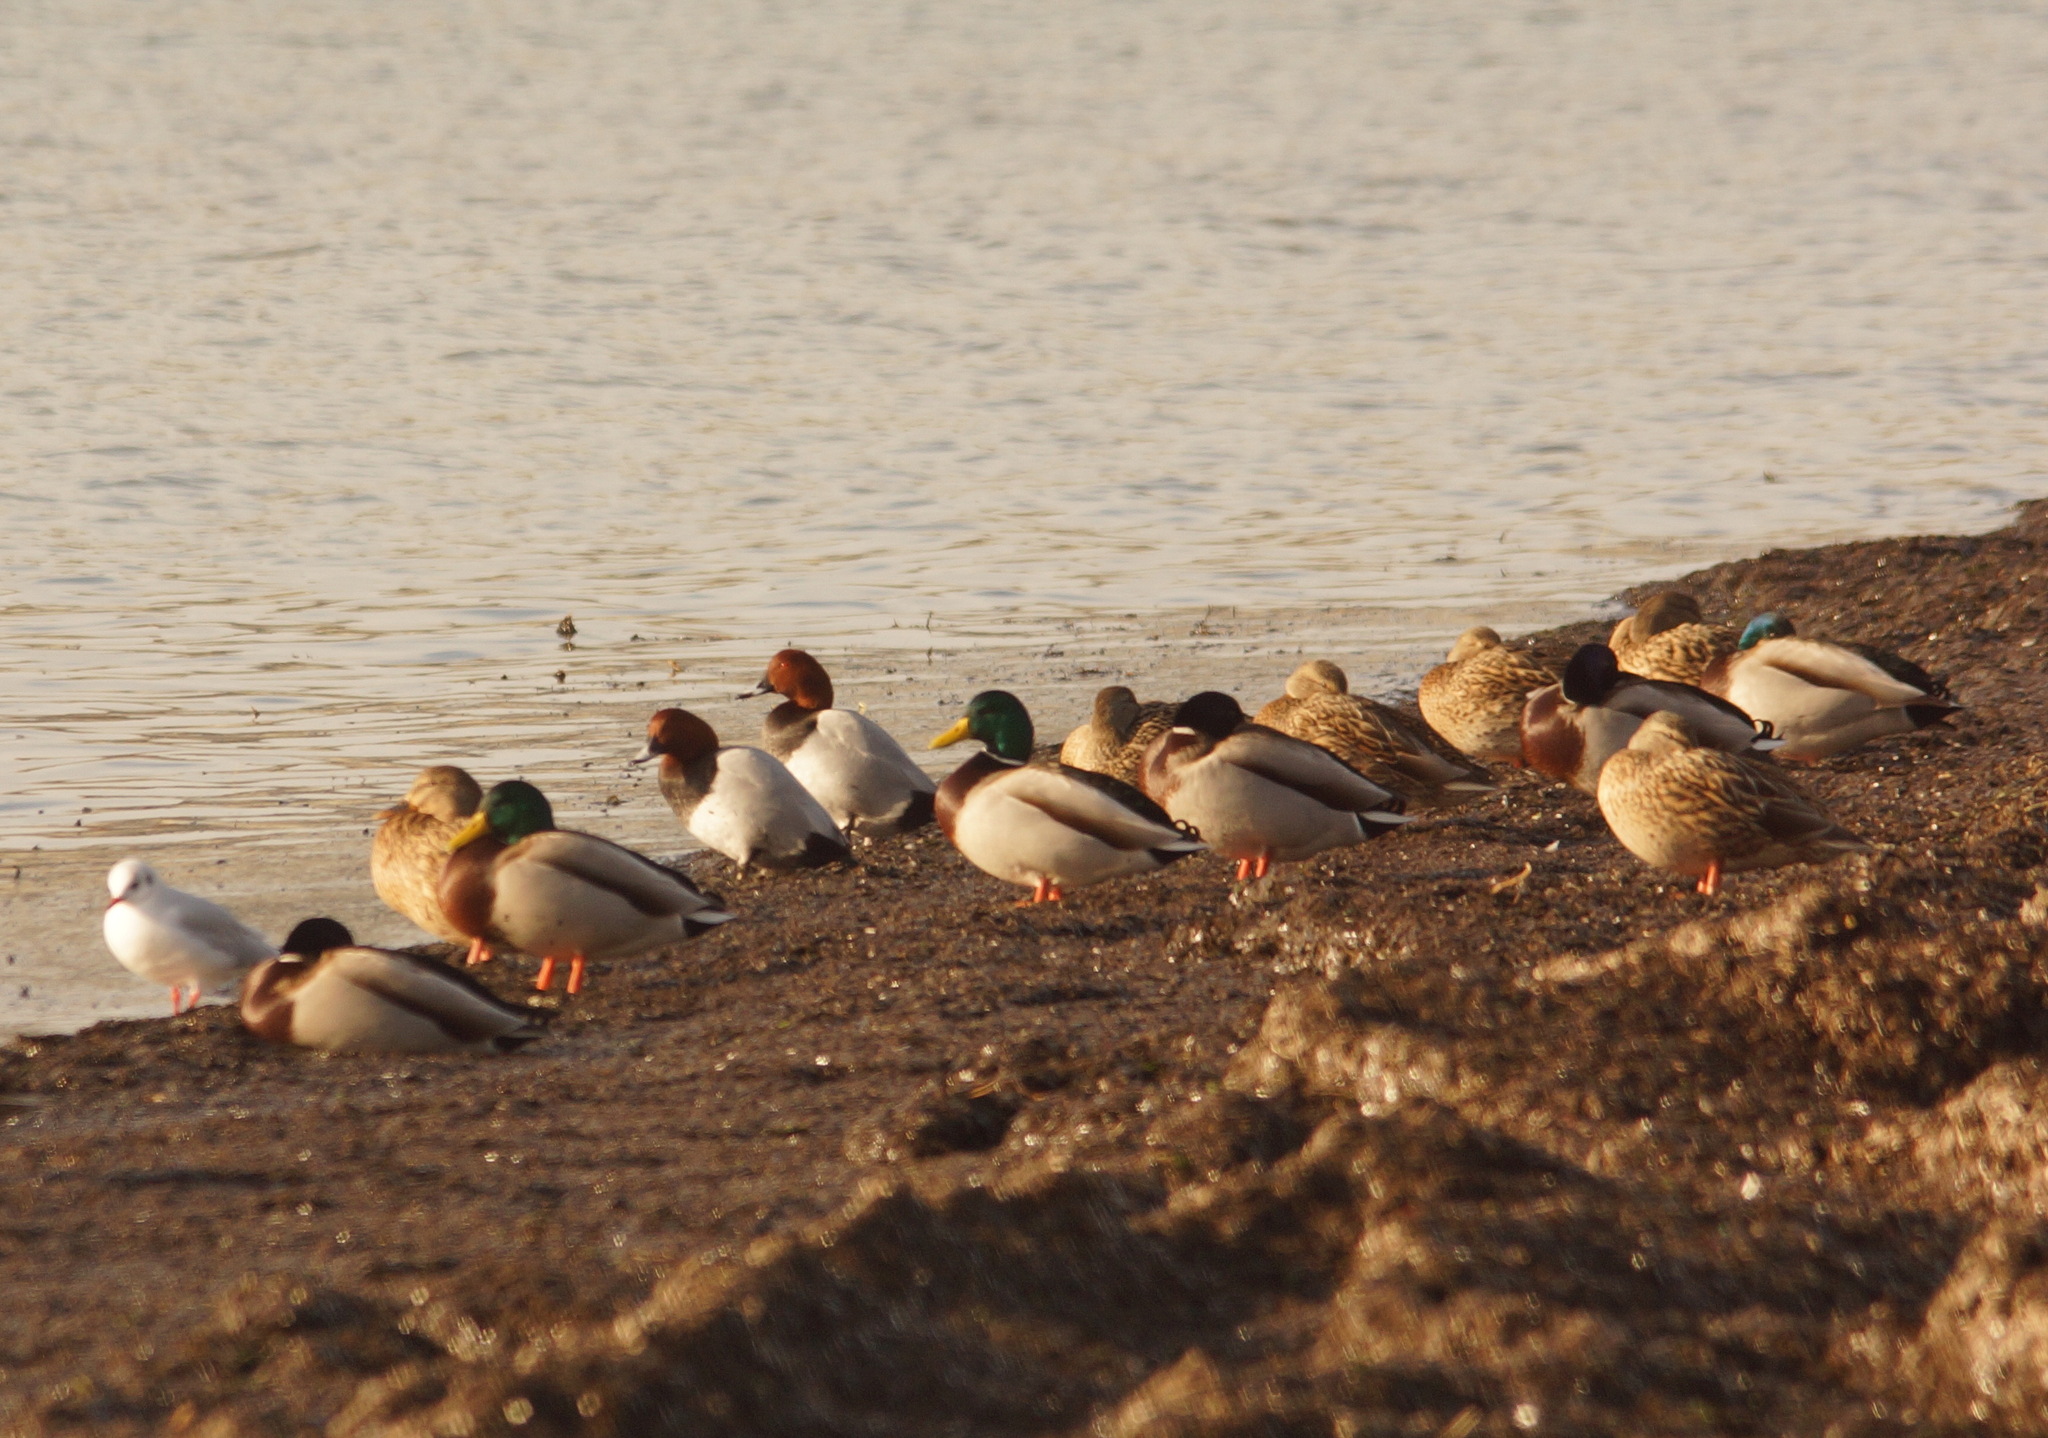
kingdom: Animalia
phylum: Chordata
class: Aves
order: Anseriformes
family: Anatidae
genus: Anas
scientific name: Anas platyrhynchos
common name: Mallard
